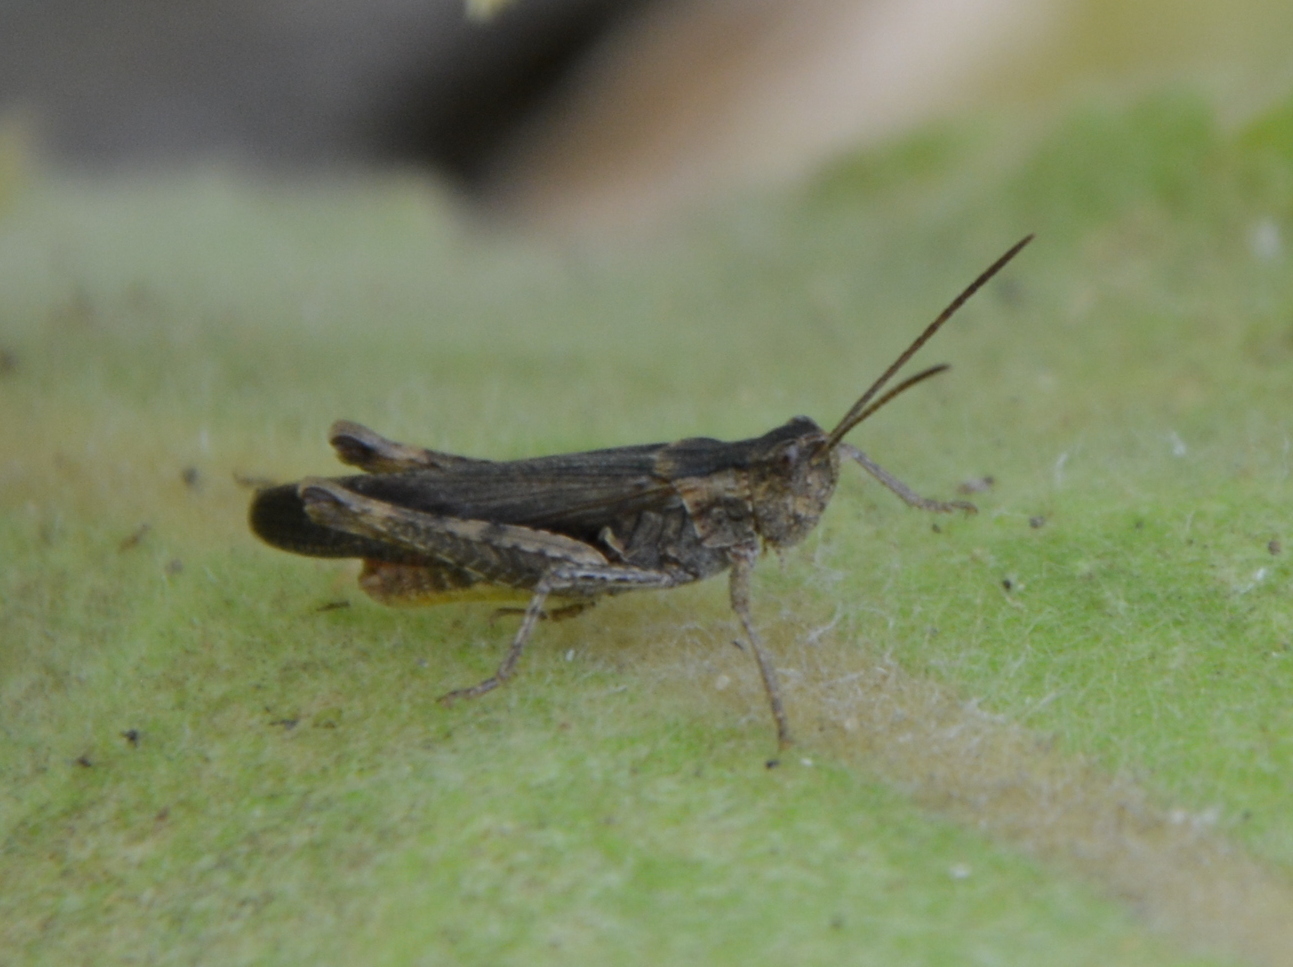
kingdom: Animalia
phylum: Arthropoda
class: Insecta
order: Orthoptera
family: Acrididae
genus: Chorthippus
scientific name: Chorthippus brunneus
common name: Field grasshopper
